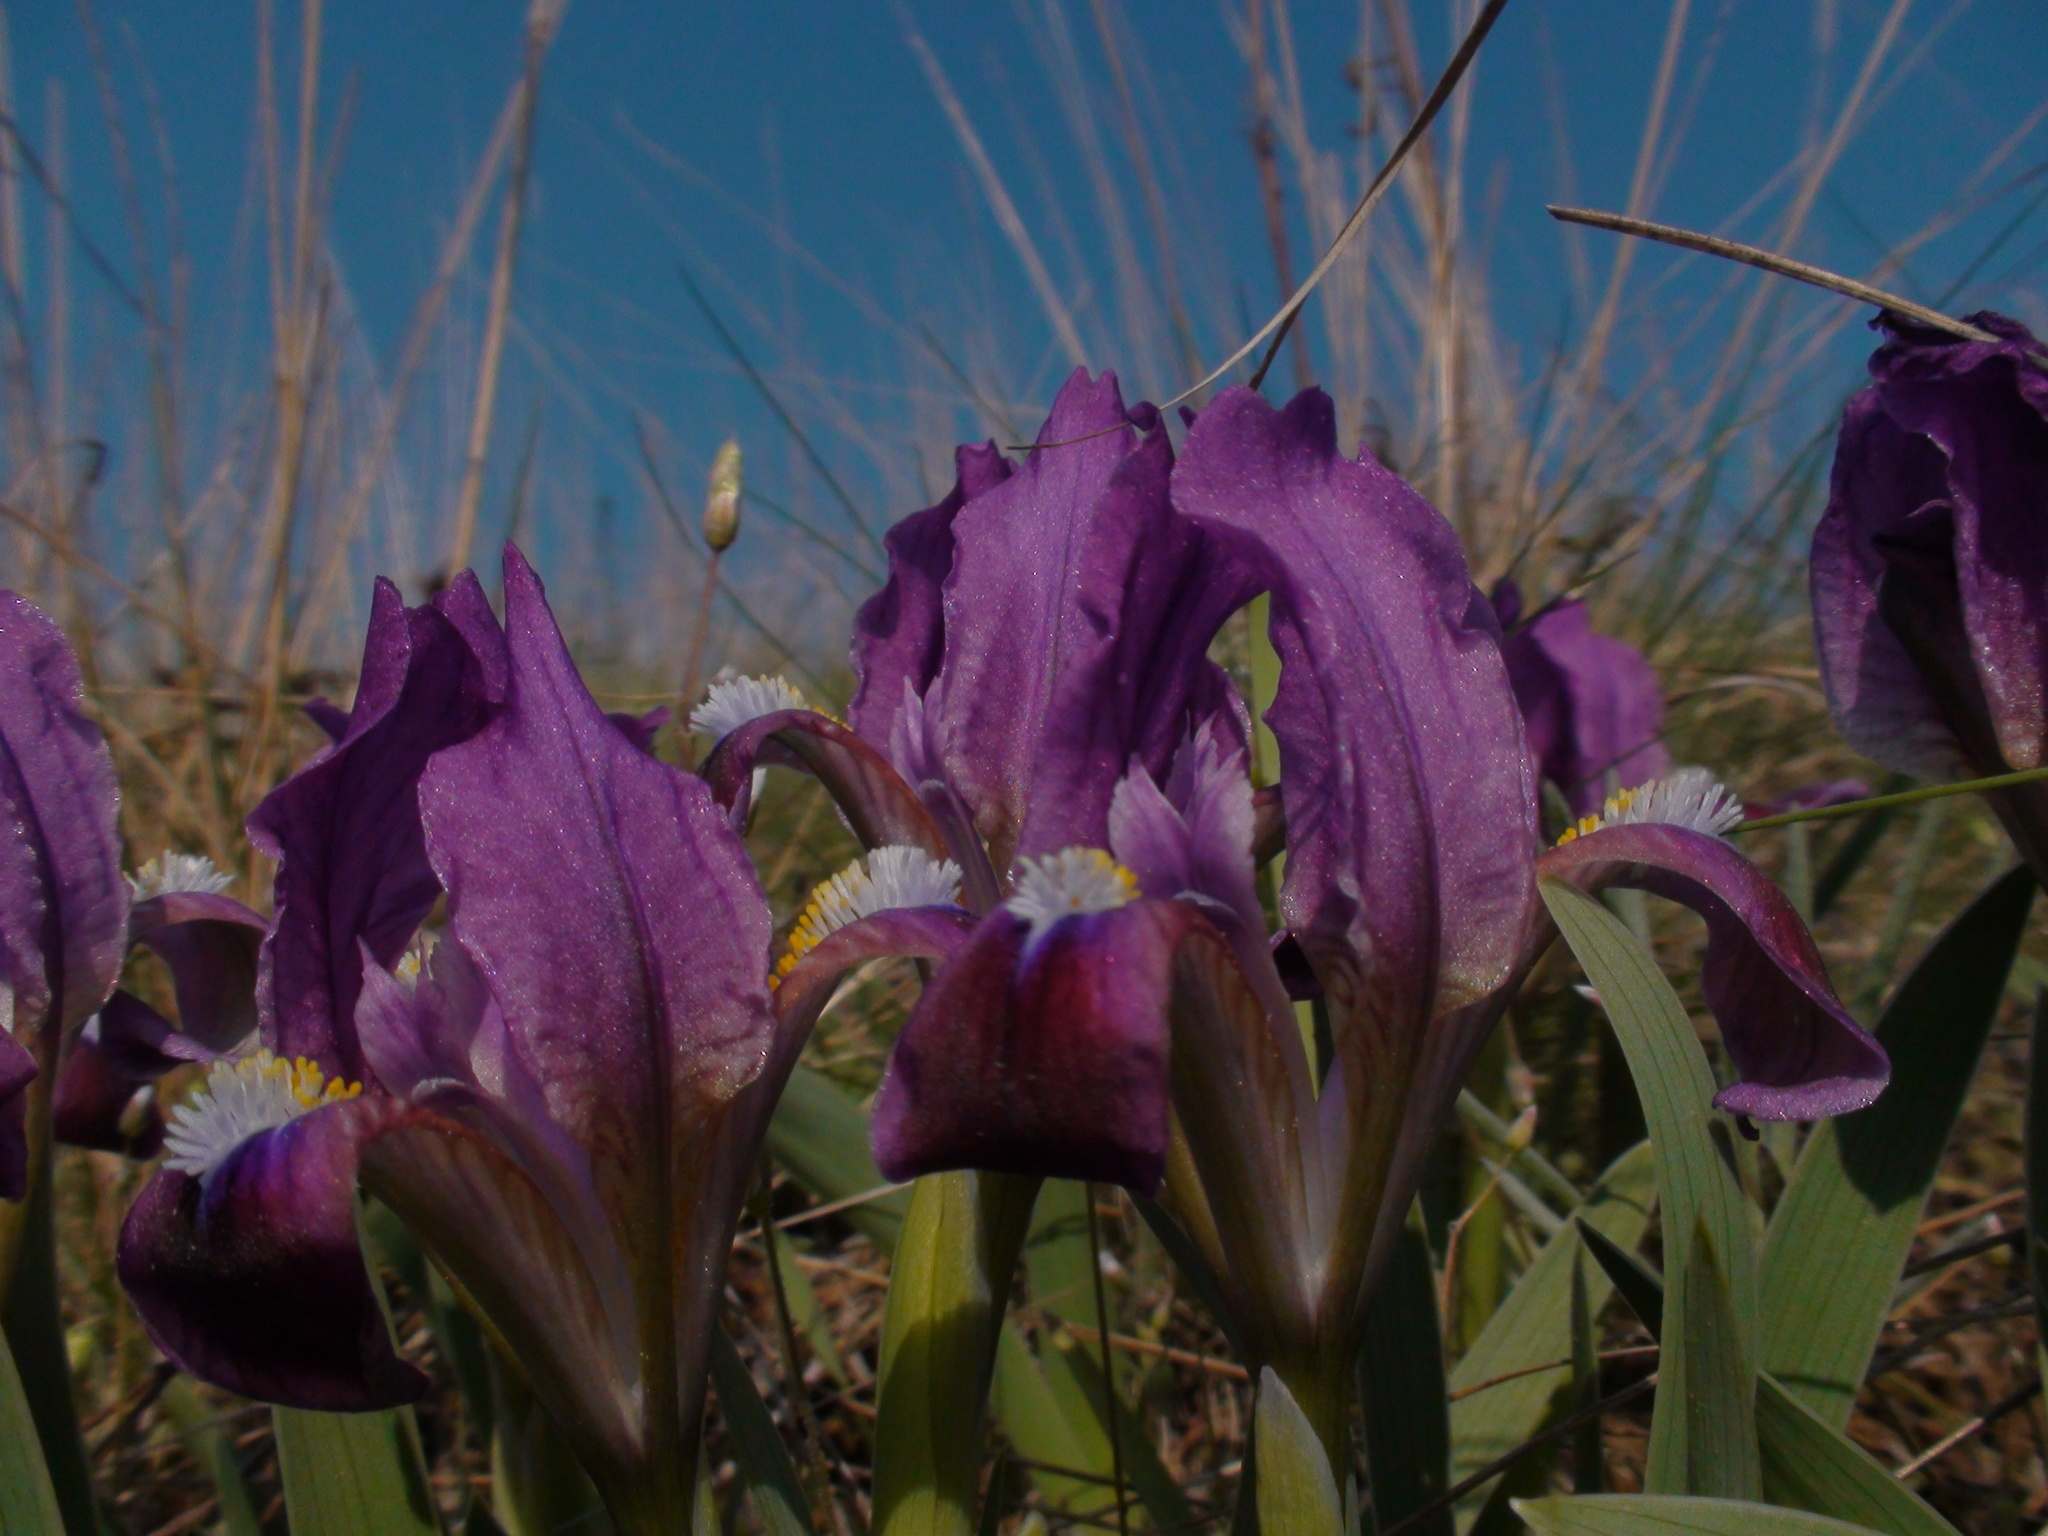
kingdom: Plantae
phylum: Tracheophyta
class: Liliopsida
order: Asparagales
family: Iridaceae
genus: Iris
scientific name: Iris pumila
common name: Dwarf iris
